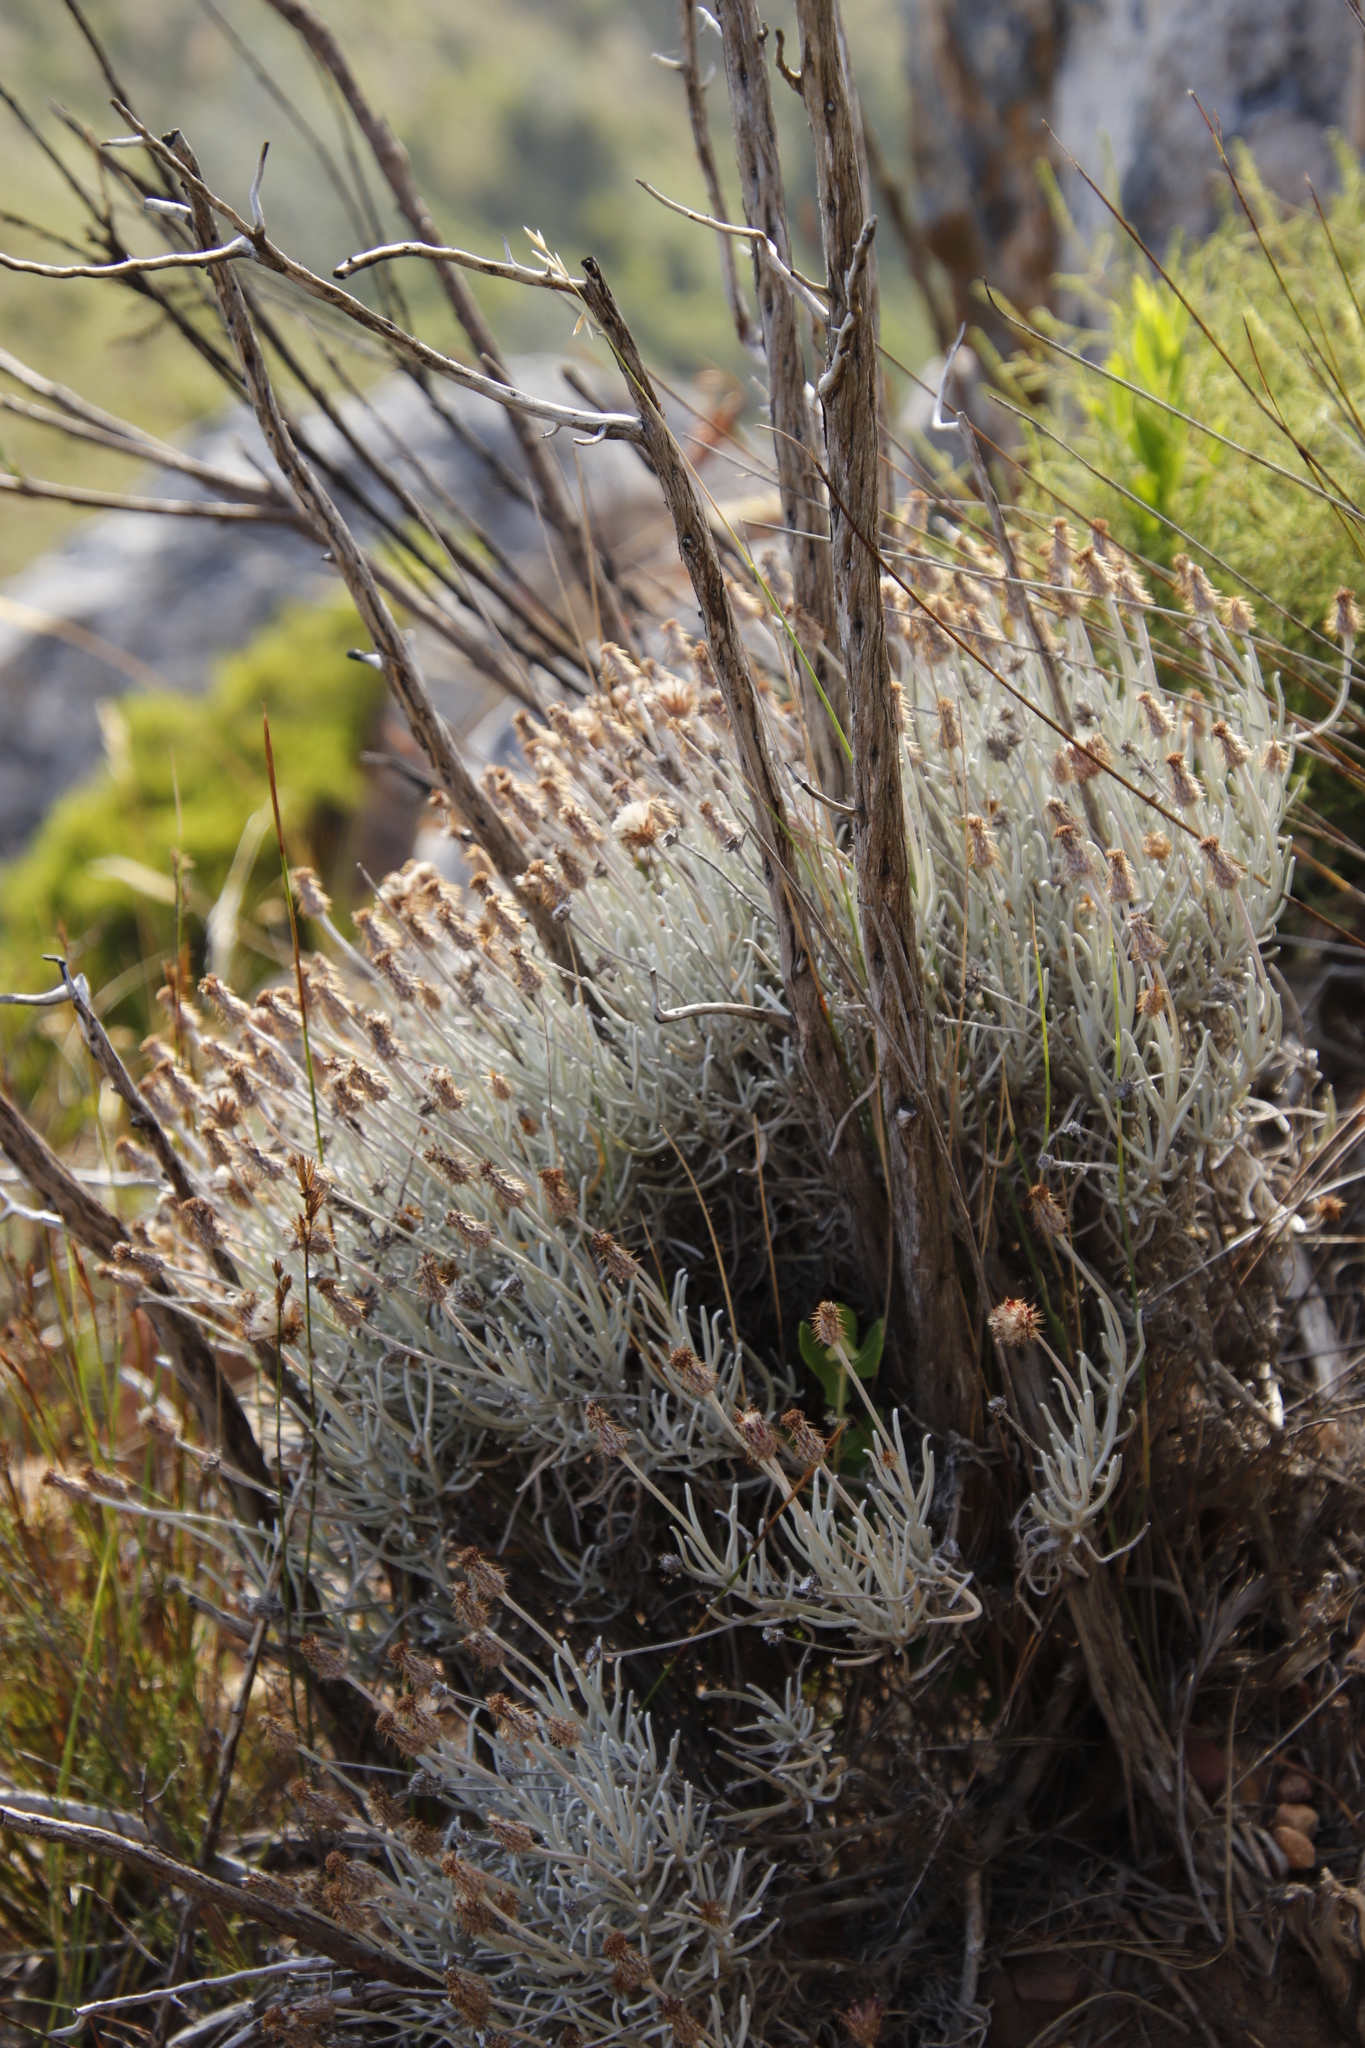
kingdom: Plantae
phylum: Tracheophyta
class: Magnoliopsida
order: Asterales
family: Asteraceae
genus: Syncarpha
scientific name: Syncarpha gnaphaloides
